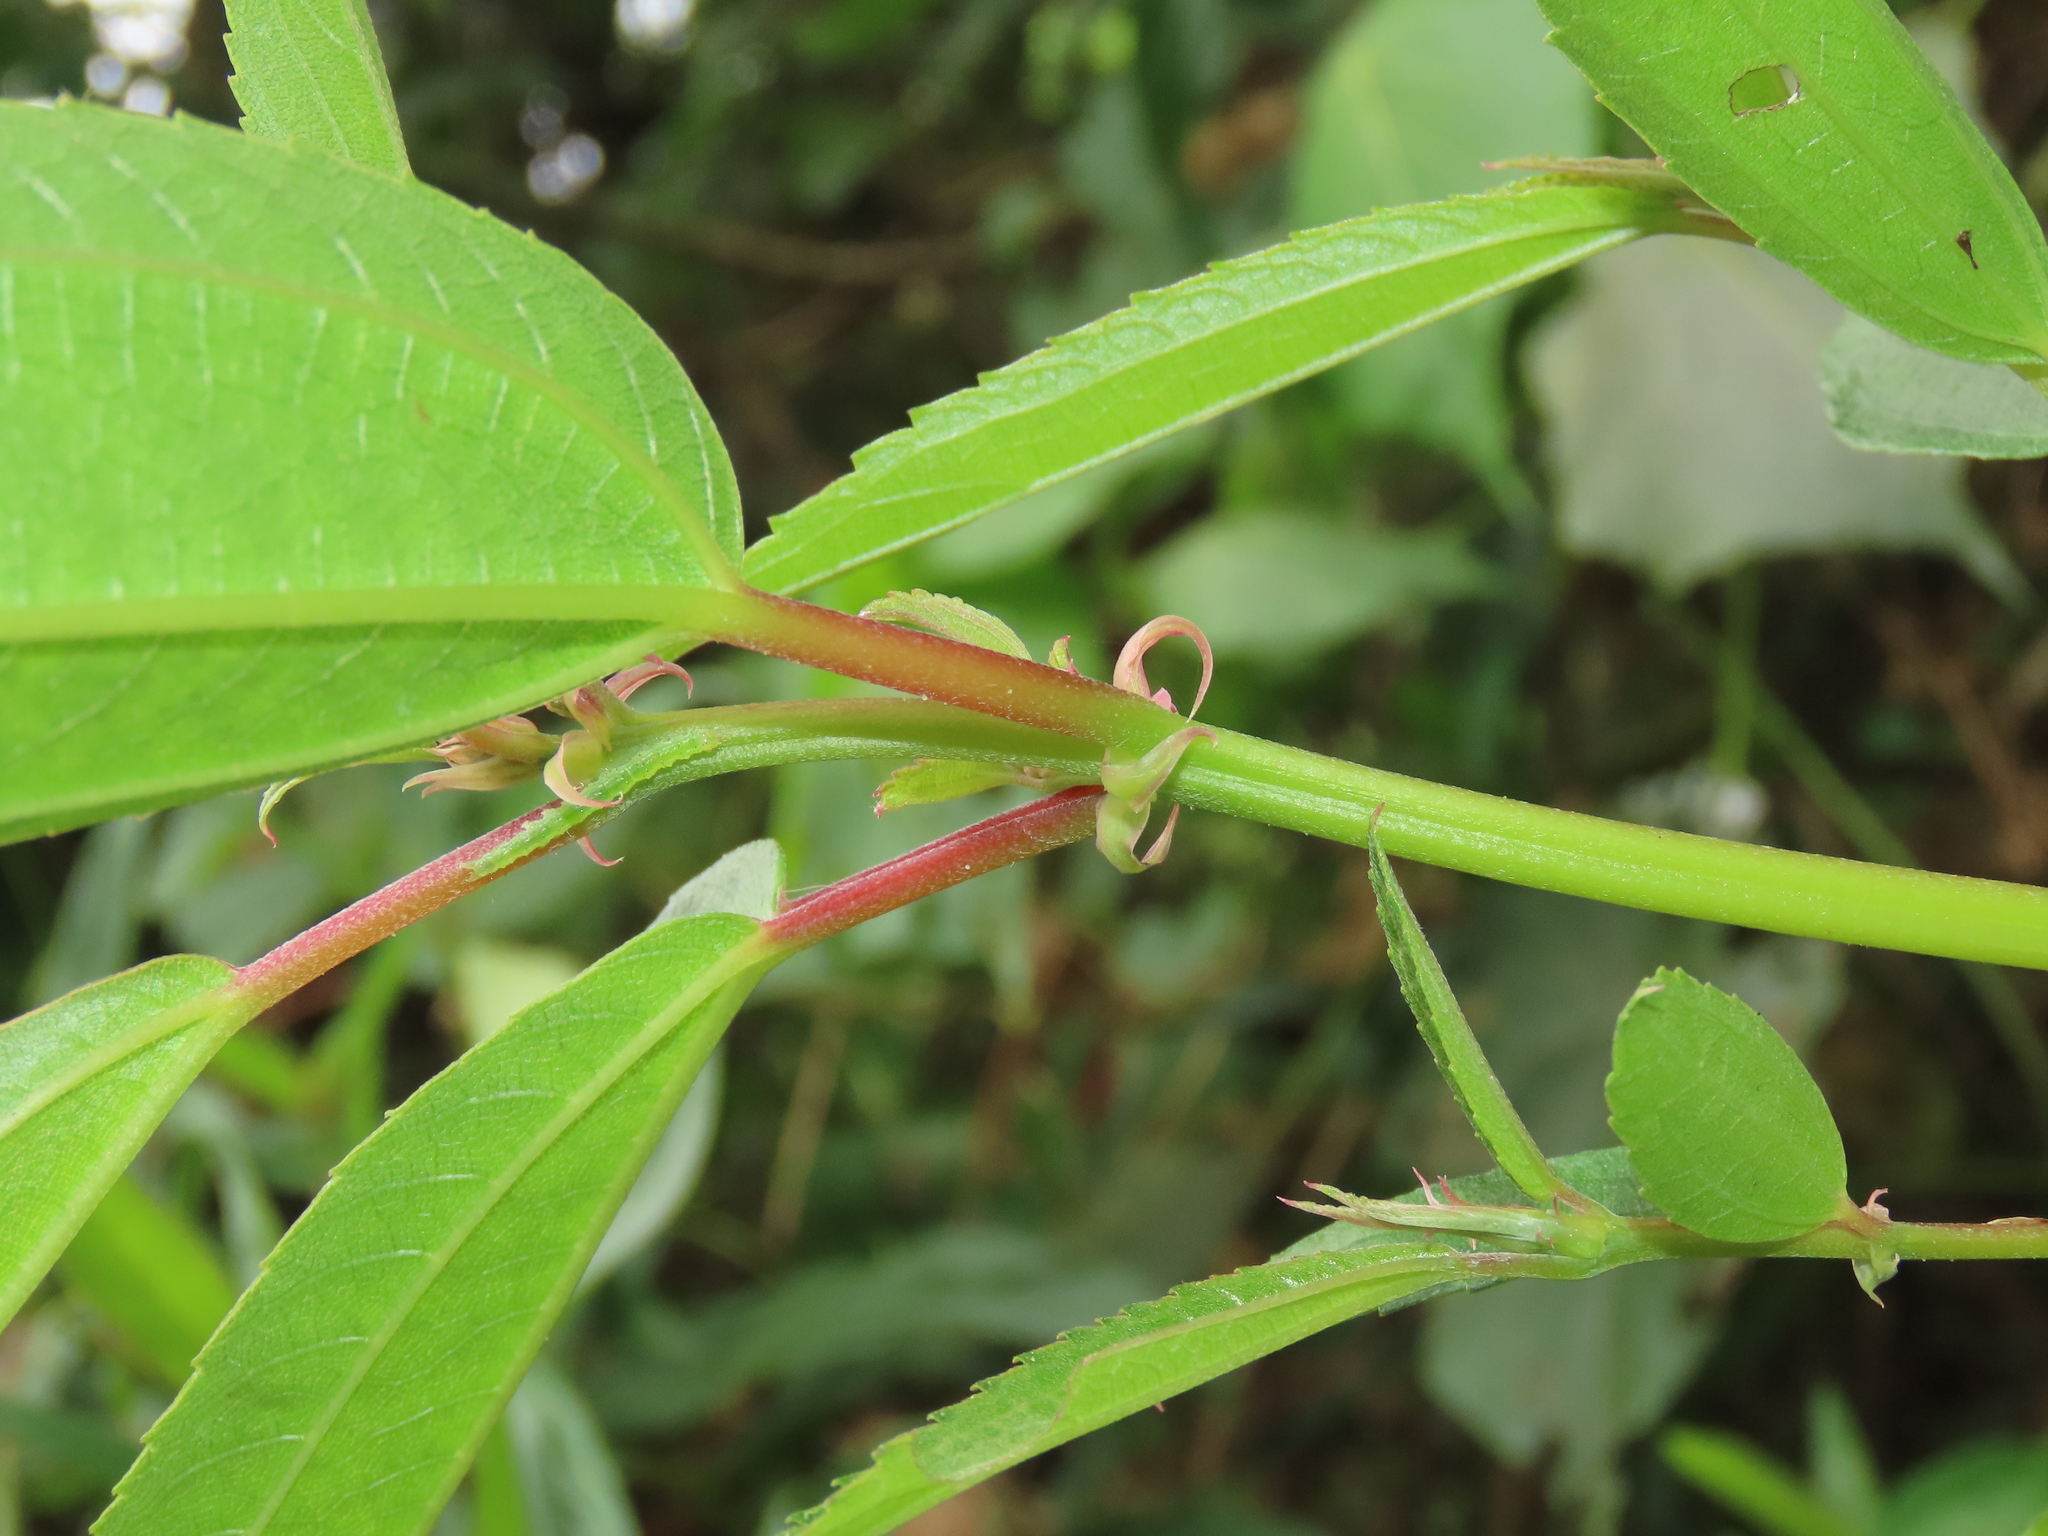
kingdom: Plantae
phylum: Tracheophyta
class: Magnoliopsida
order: Rosales
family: Urticaceae
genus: Boehmeria
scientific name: Boehmeria densiflora
